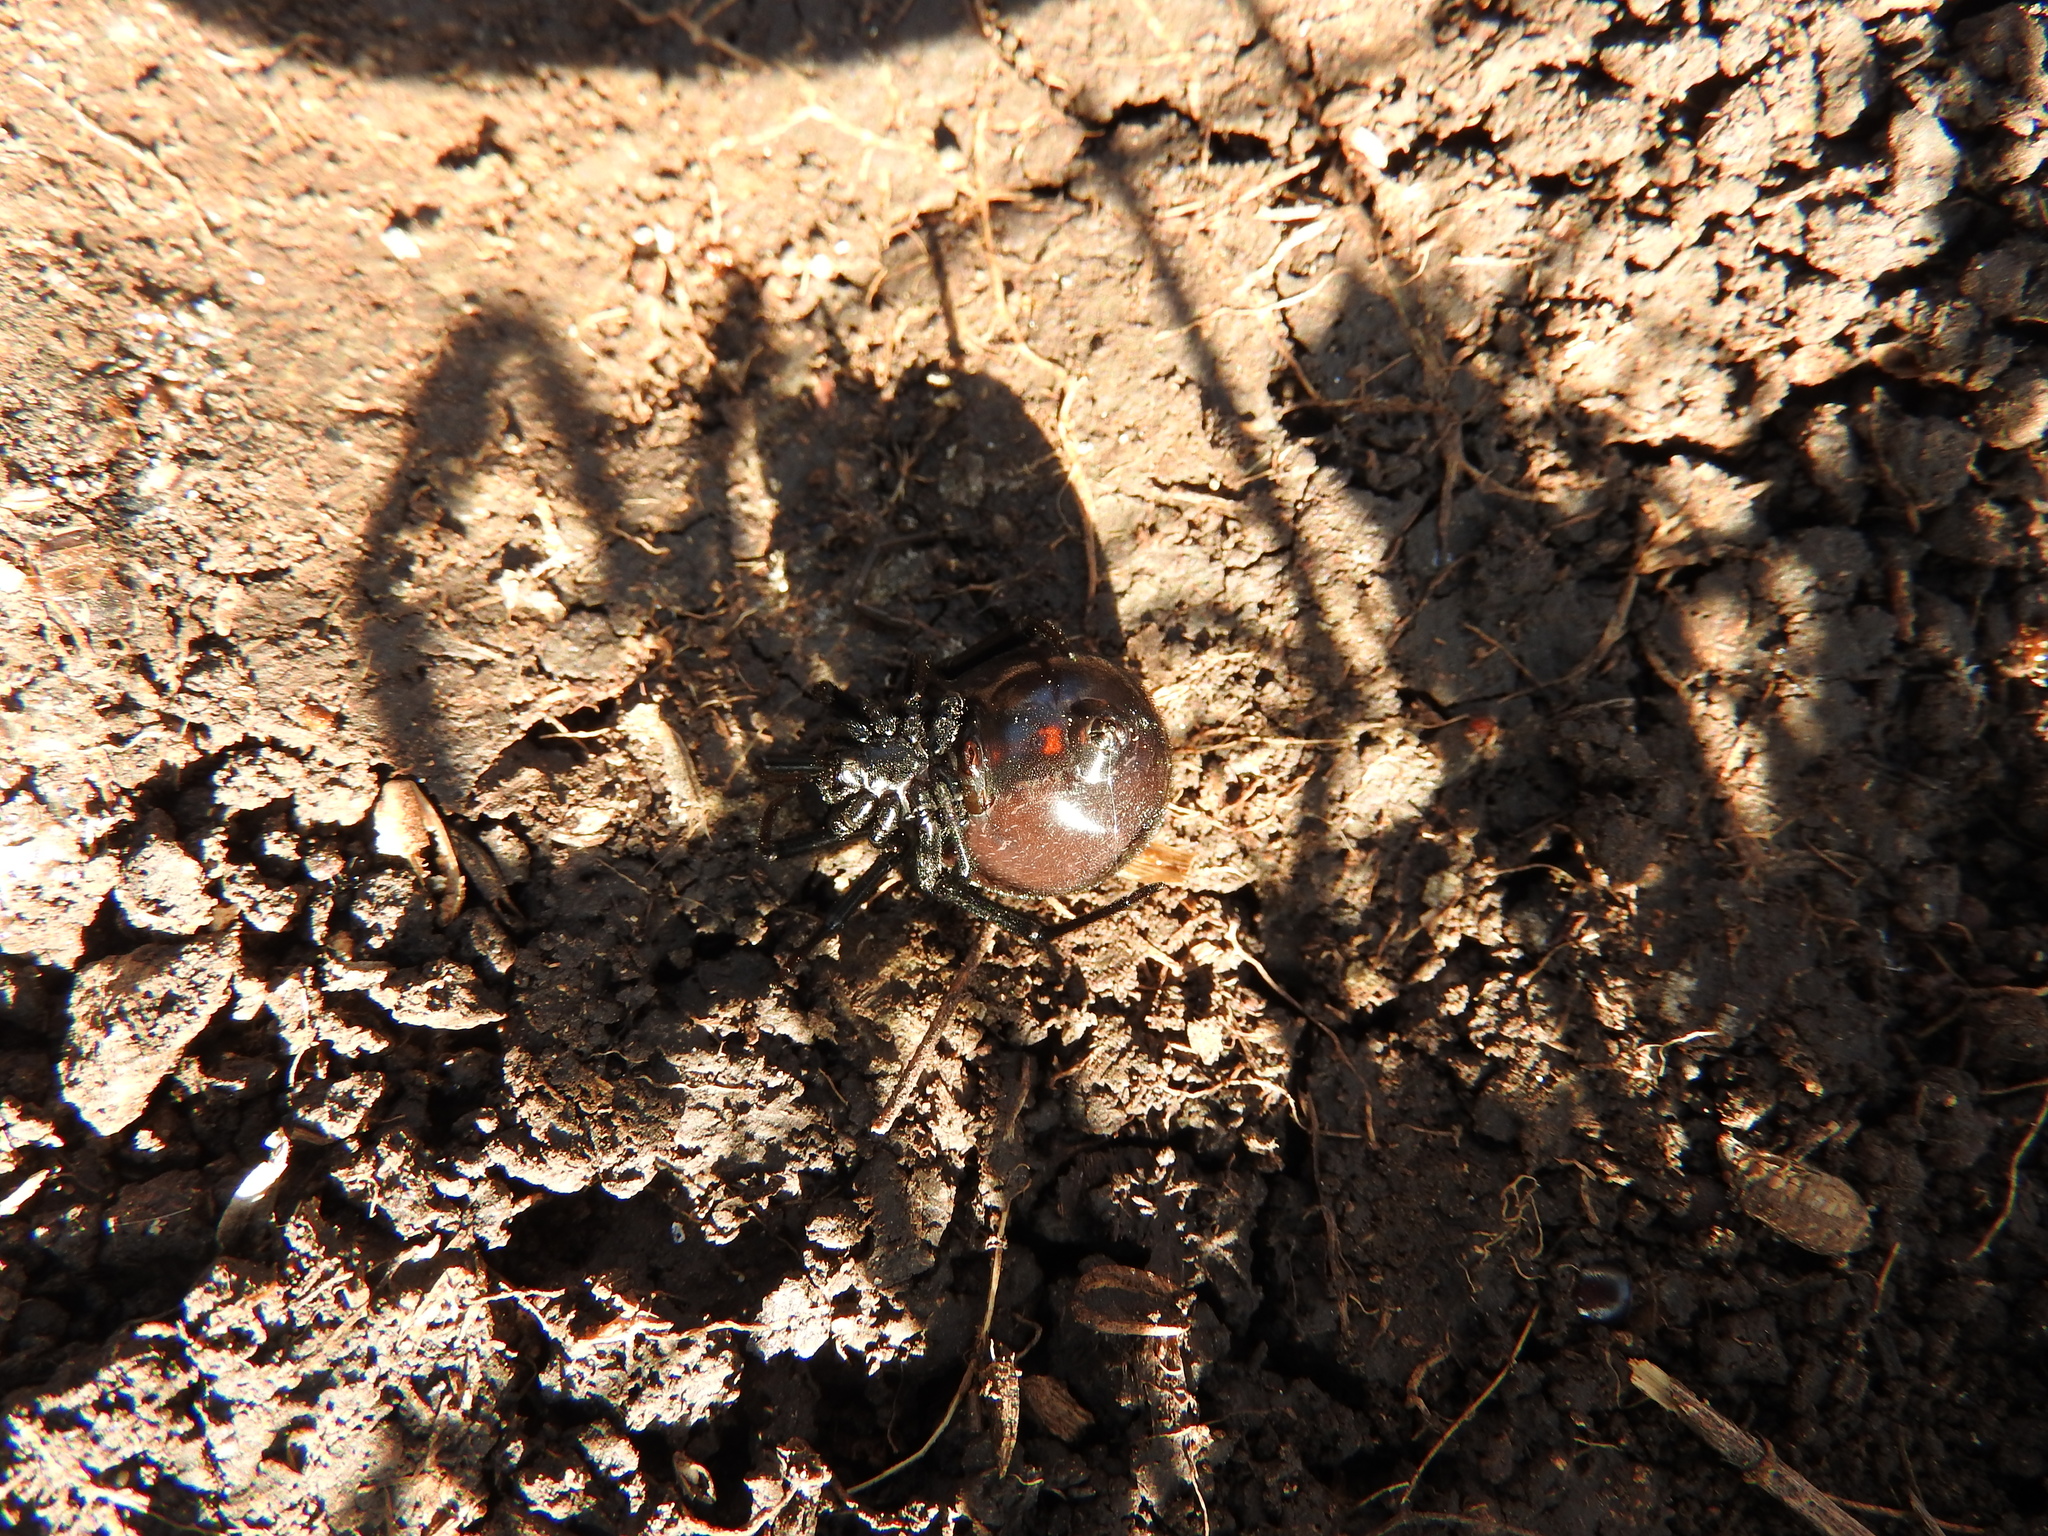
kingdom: Animalia
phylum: Arthropoda
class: Arachnida
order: Araneae
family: Theridiidae
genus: Latrodectus
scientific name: Latrodectus hesperus
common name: Western black widow
